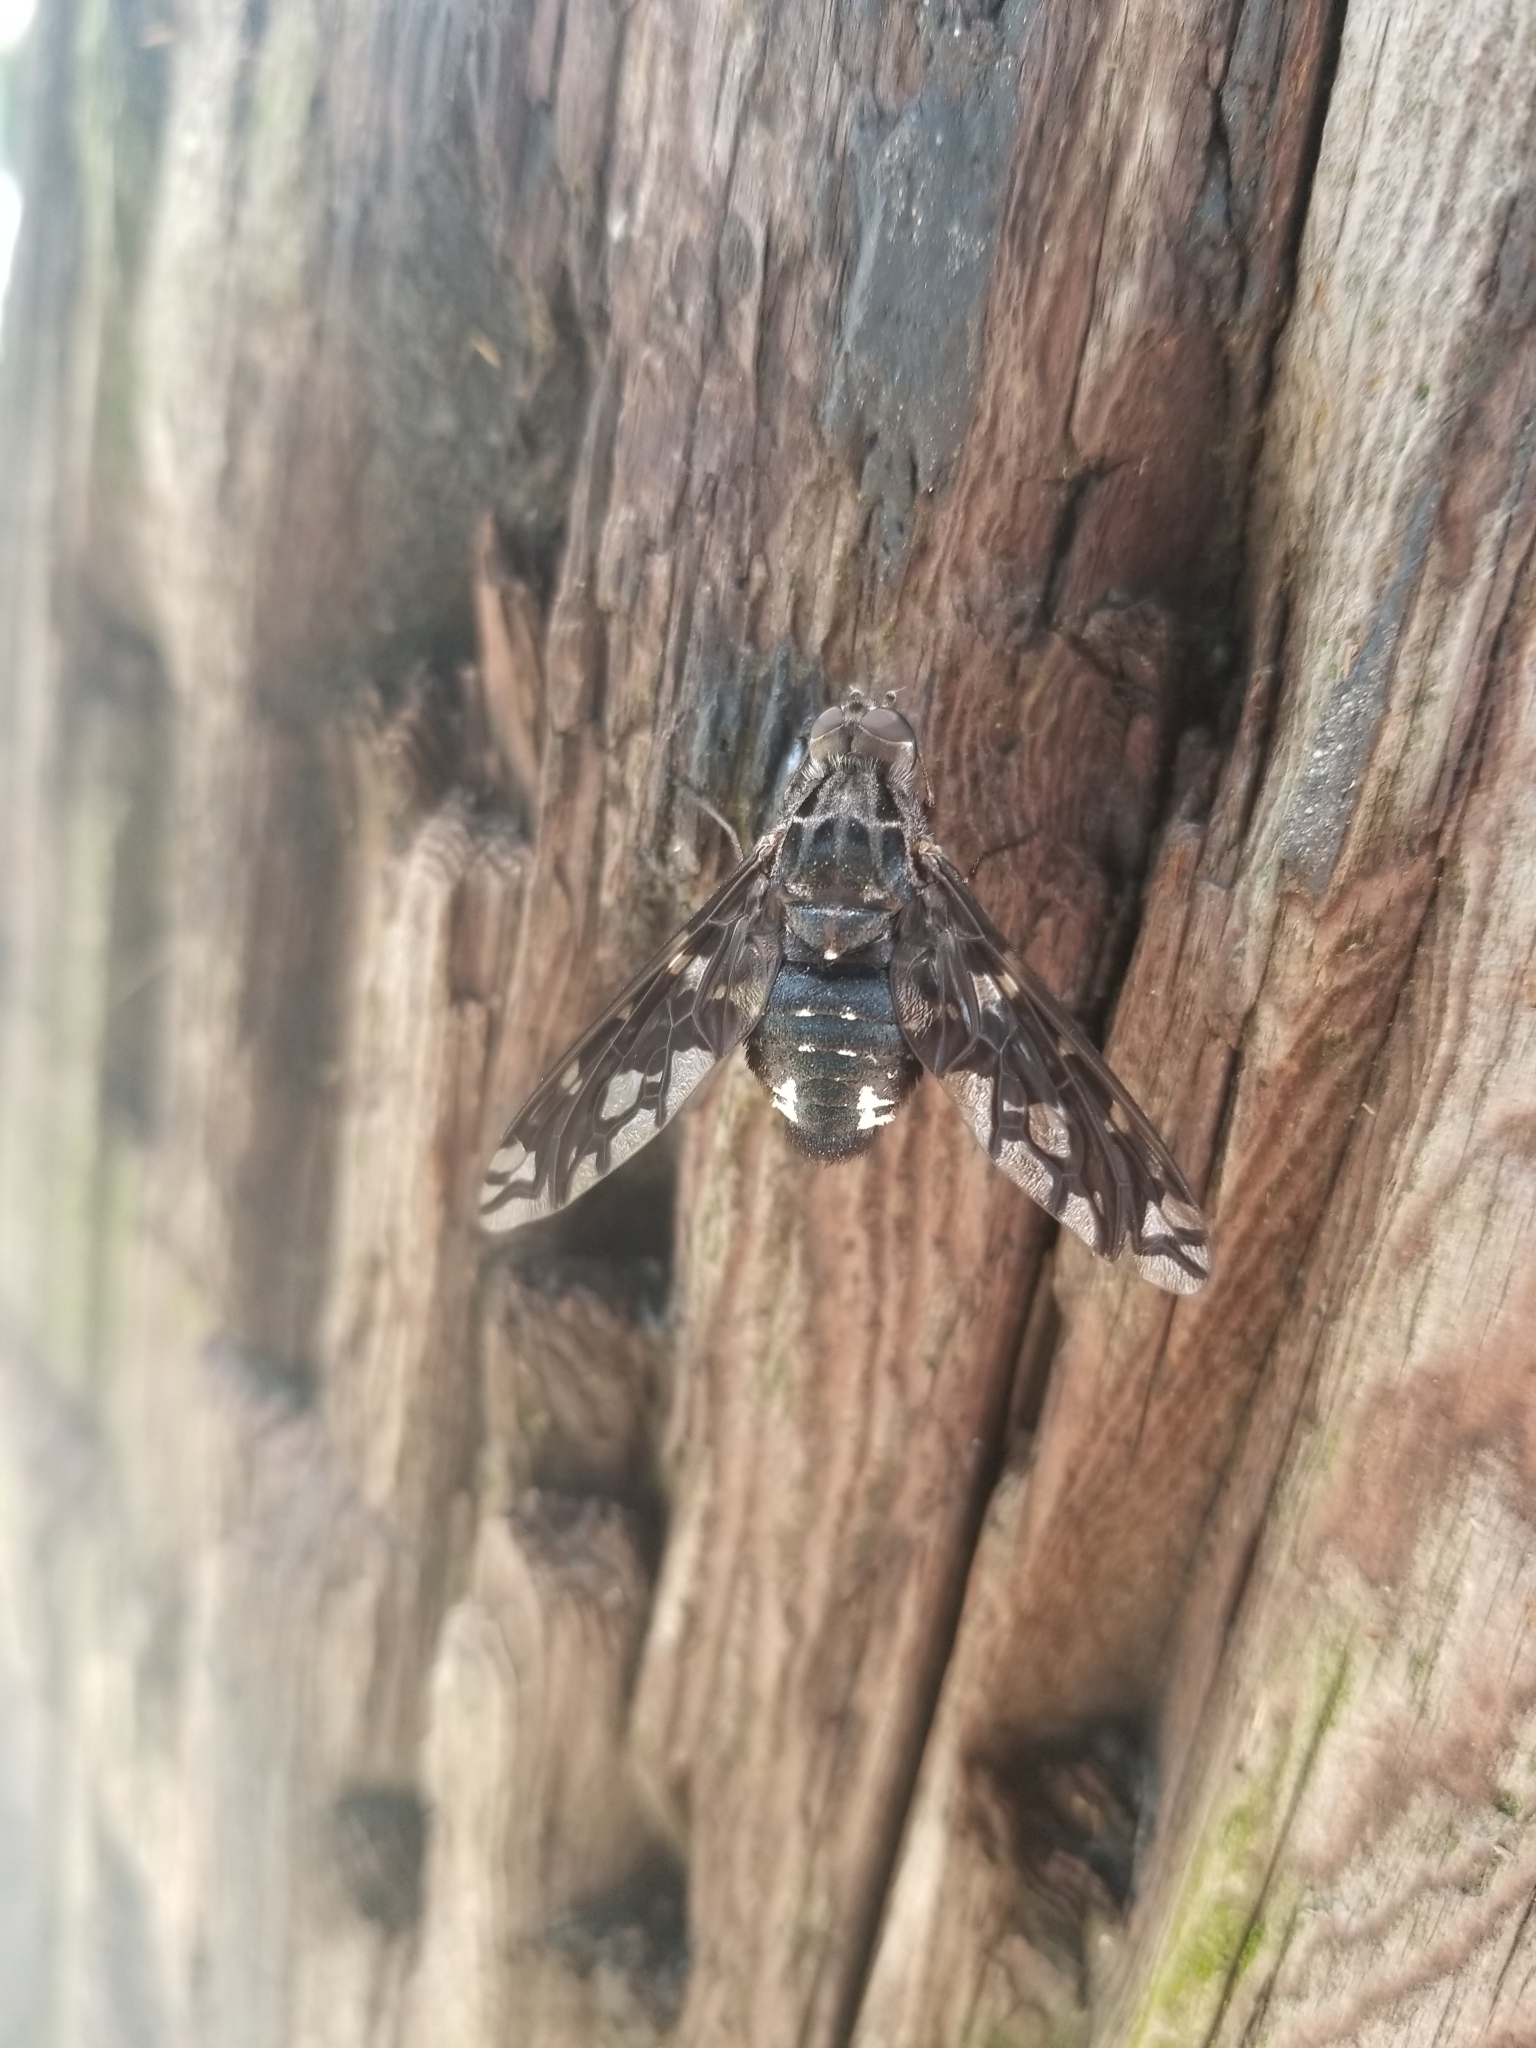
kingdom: Animalia
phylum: Arthropoda
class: Insecta
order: Diptera
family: Bombyliidae
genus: Xenox
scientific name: Xenox tigrinus
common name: Tiger bee fly
